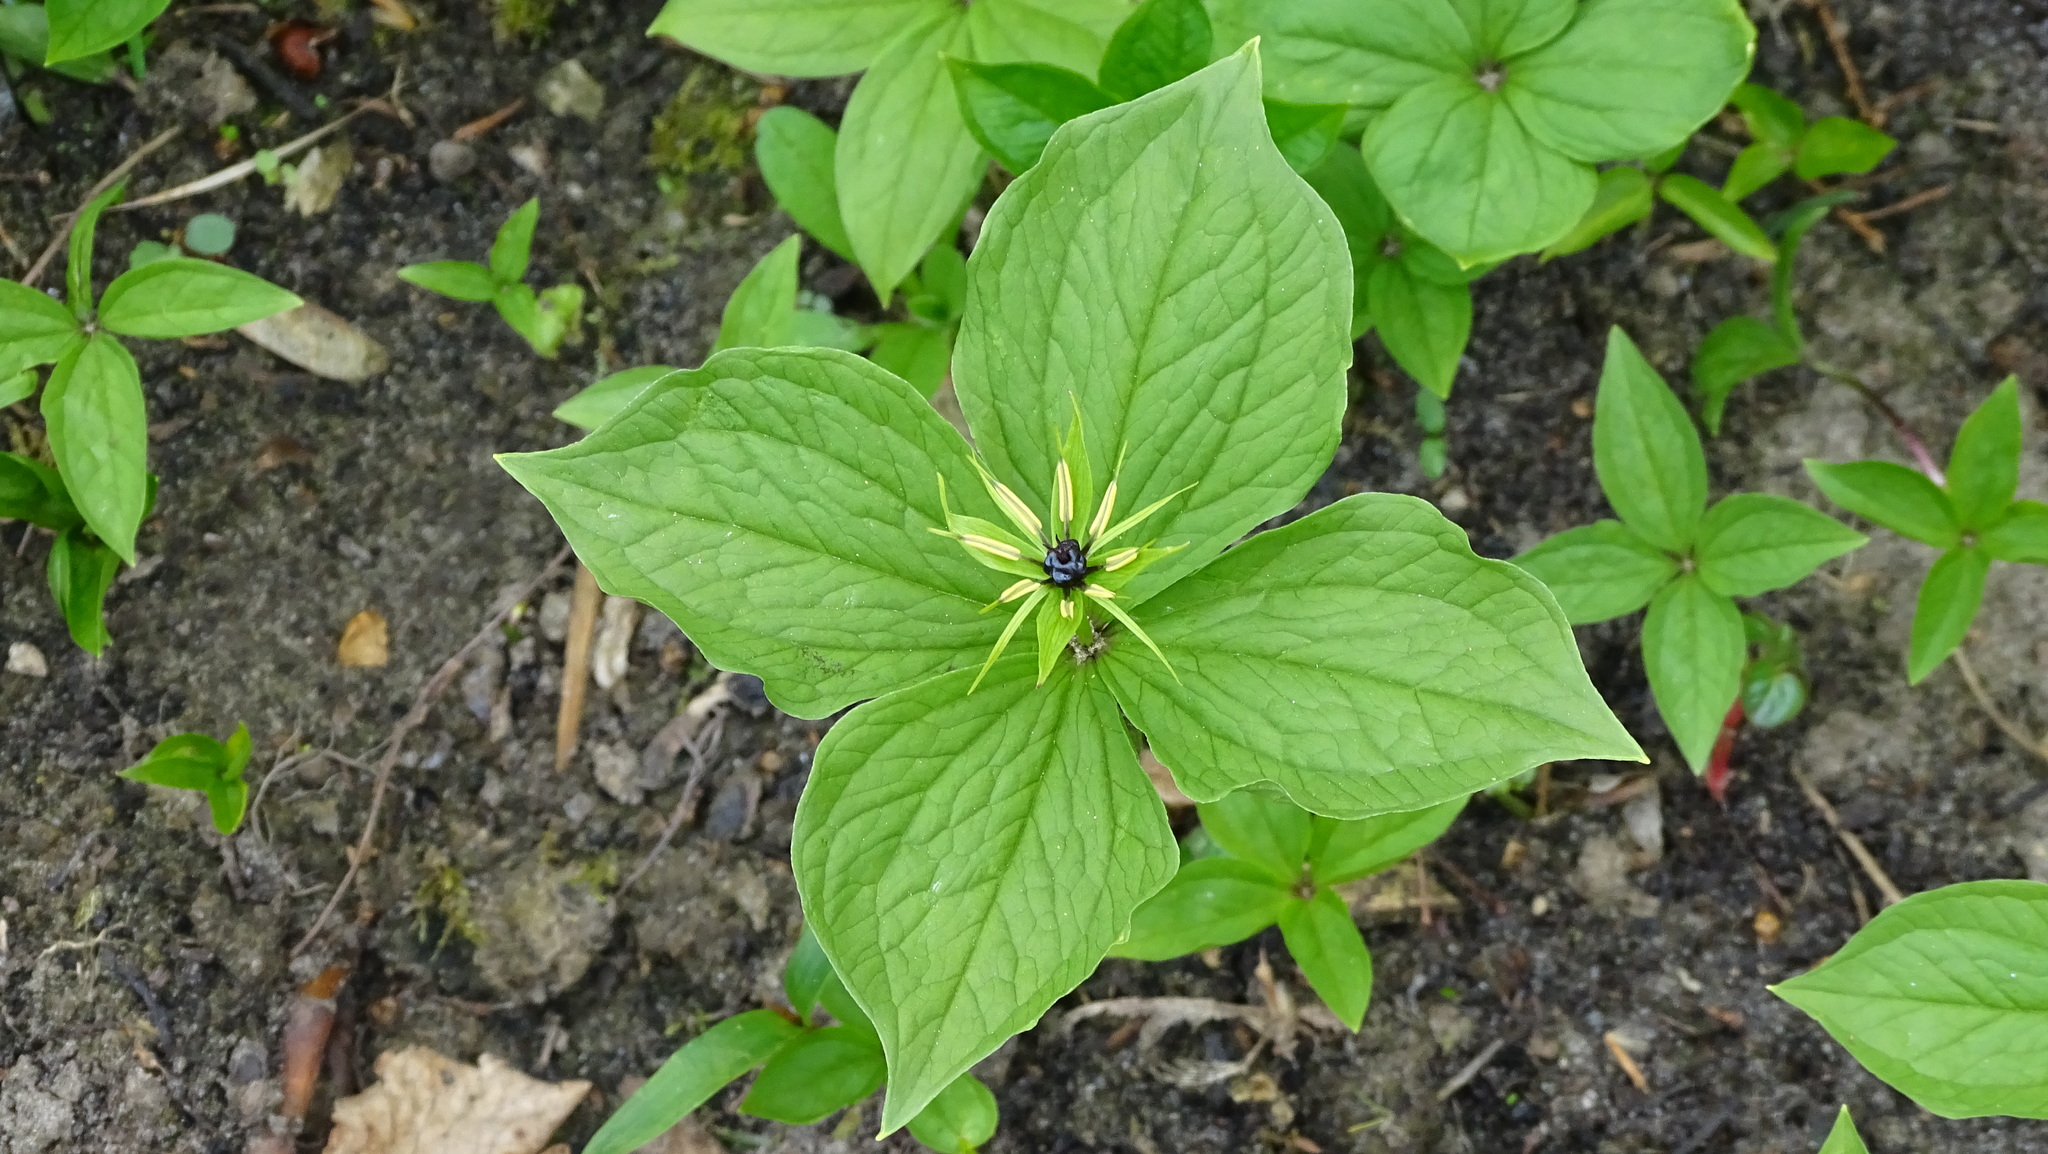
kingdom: Plantae
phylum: Tracheophyta
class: Liliopsida
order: Liliales
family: Melanthiaceae
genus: Paris
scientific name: Paris quadrifolia
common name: Herb-paris
